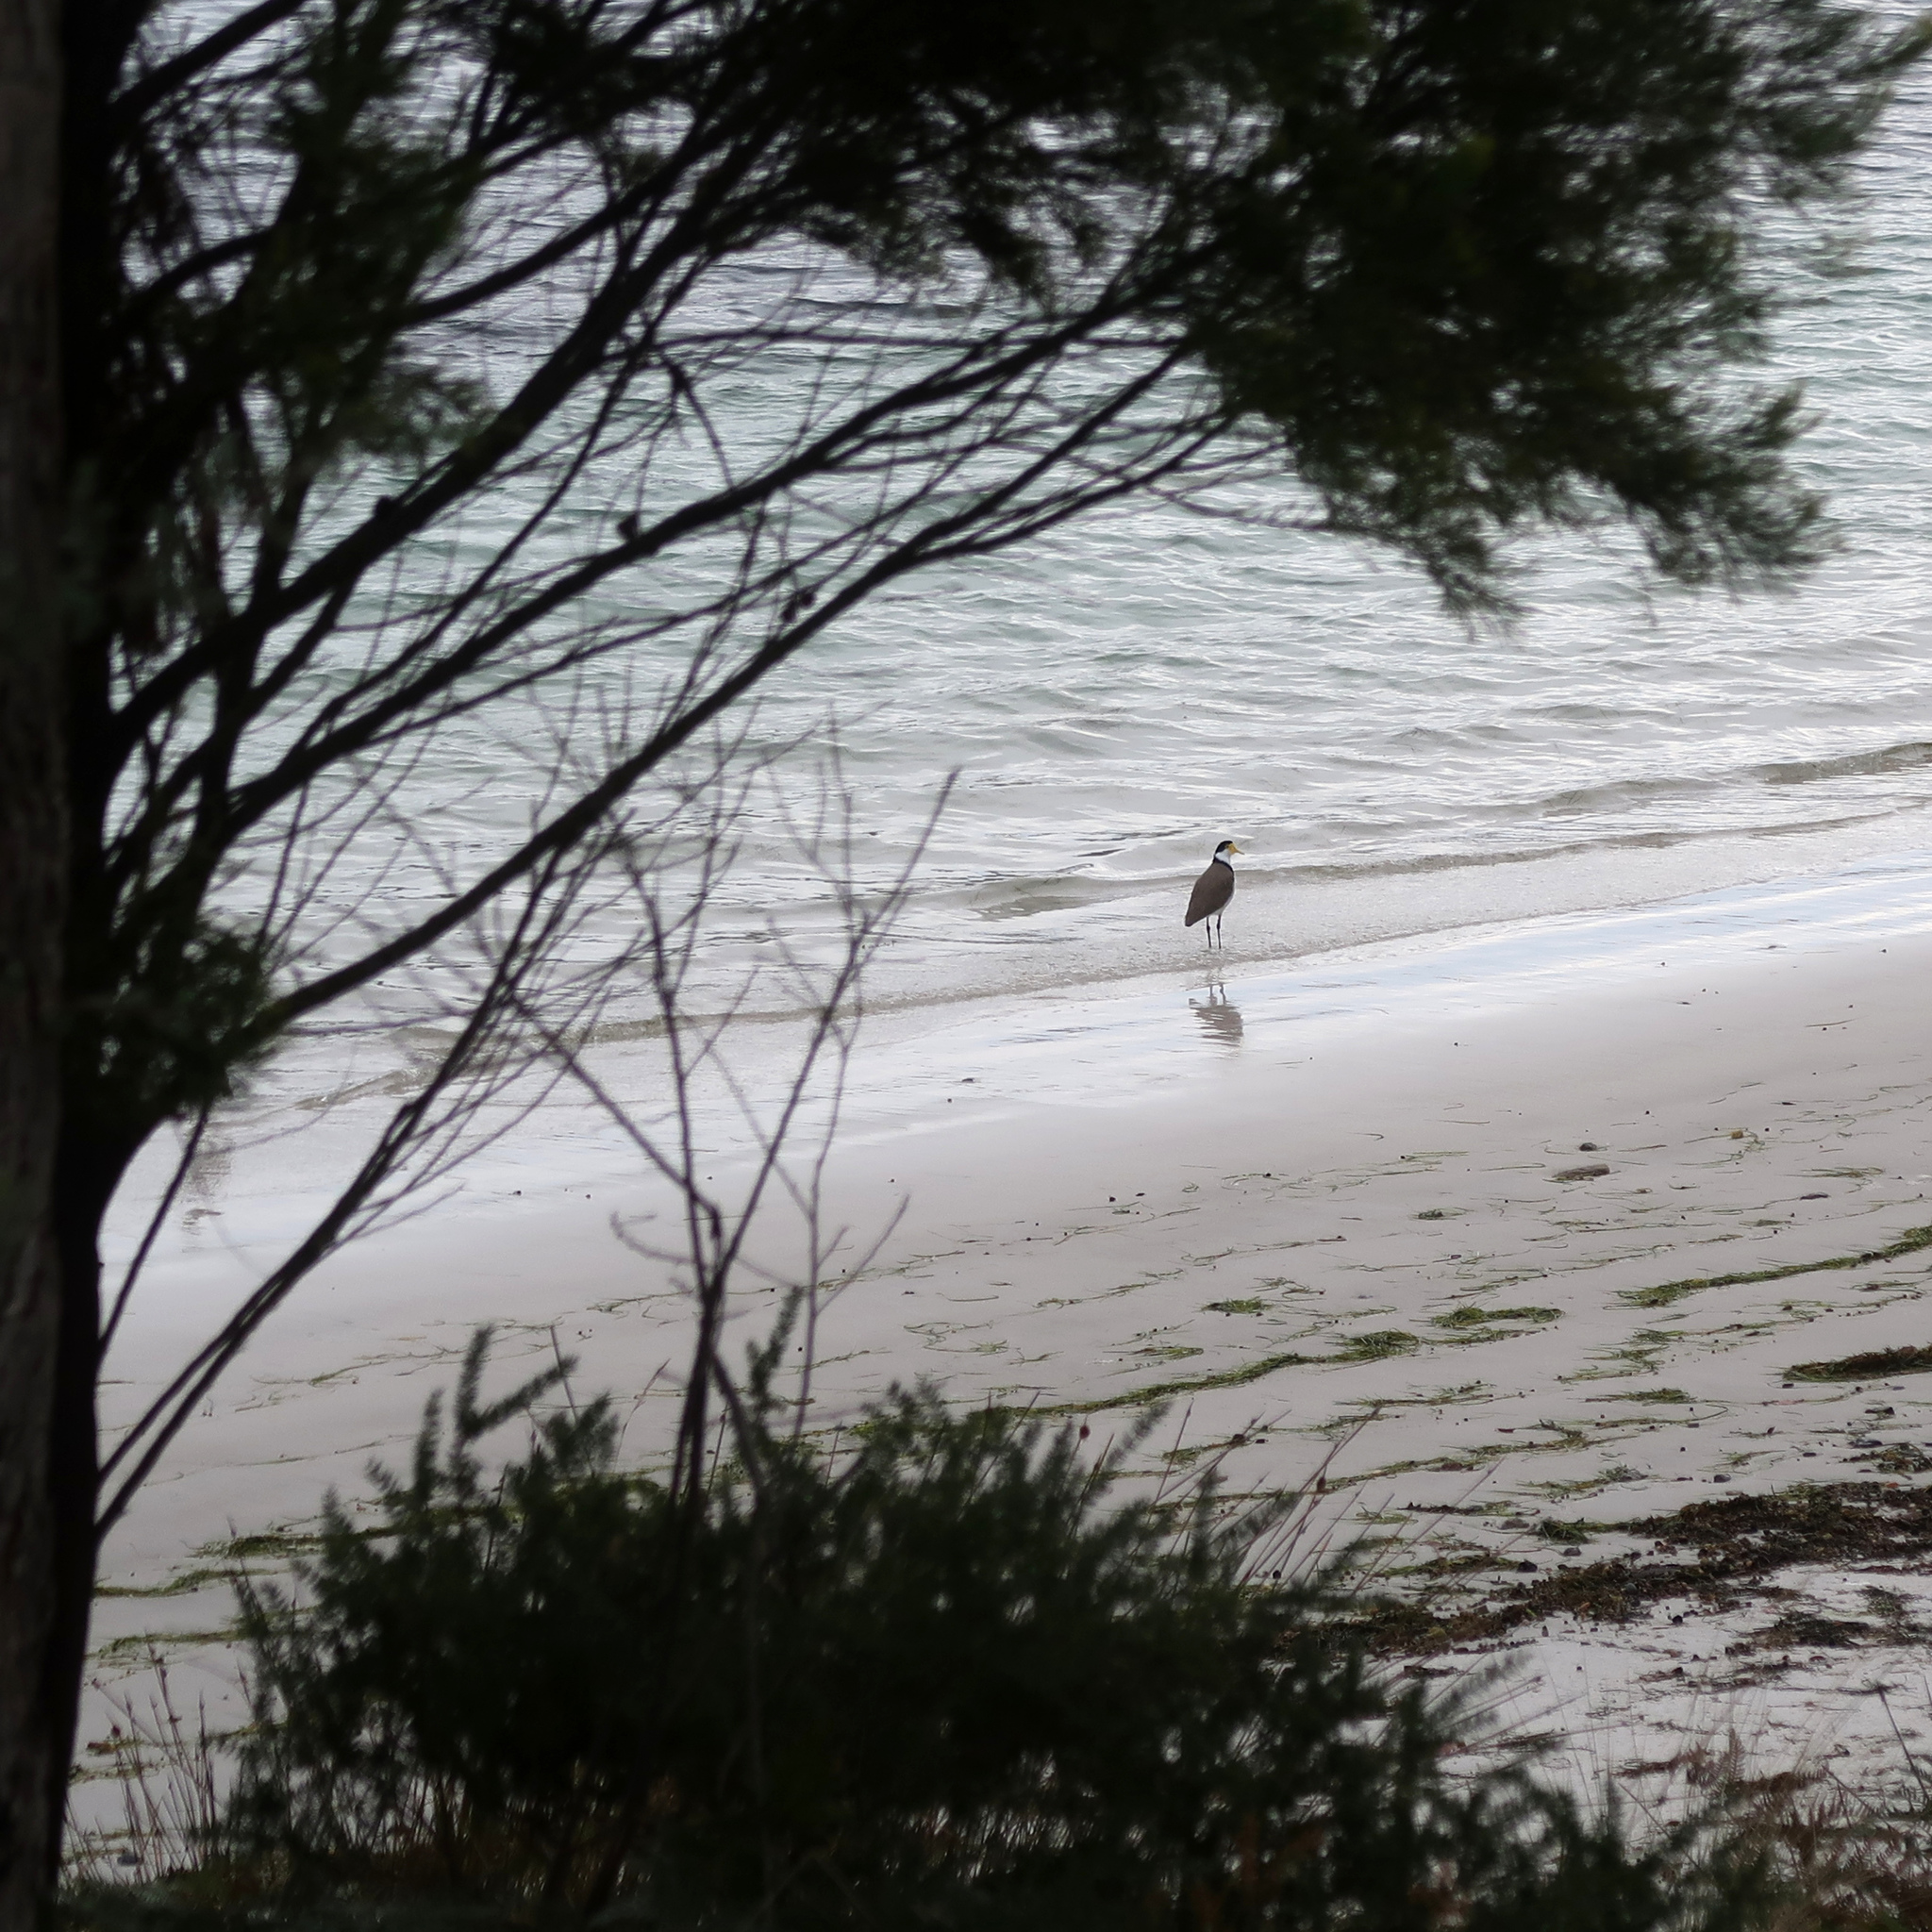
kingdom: Animalia
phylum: Chordata
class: Aves
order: Charadriiformes
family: Charadriidae
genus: Vanellus
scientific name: Vanellus miles
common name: Masked lapwing
